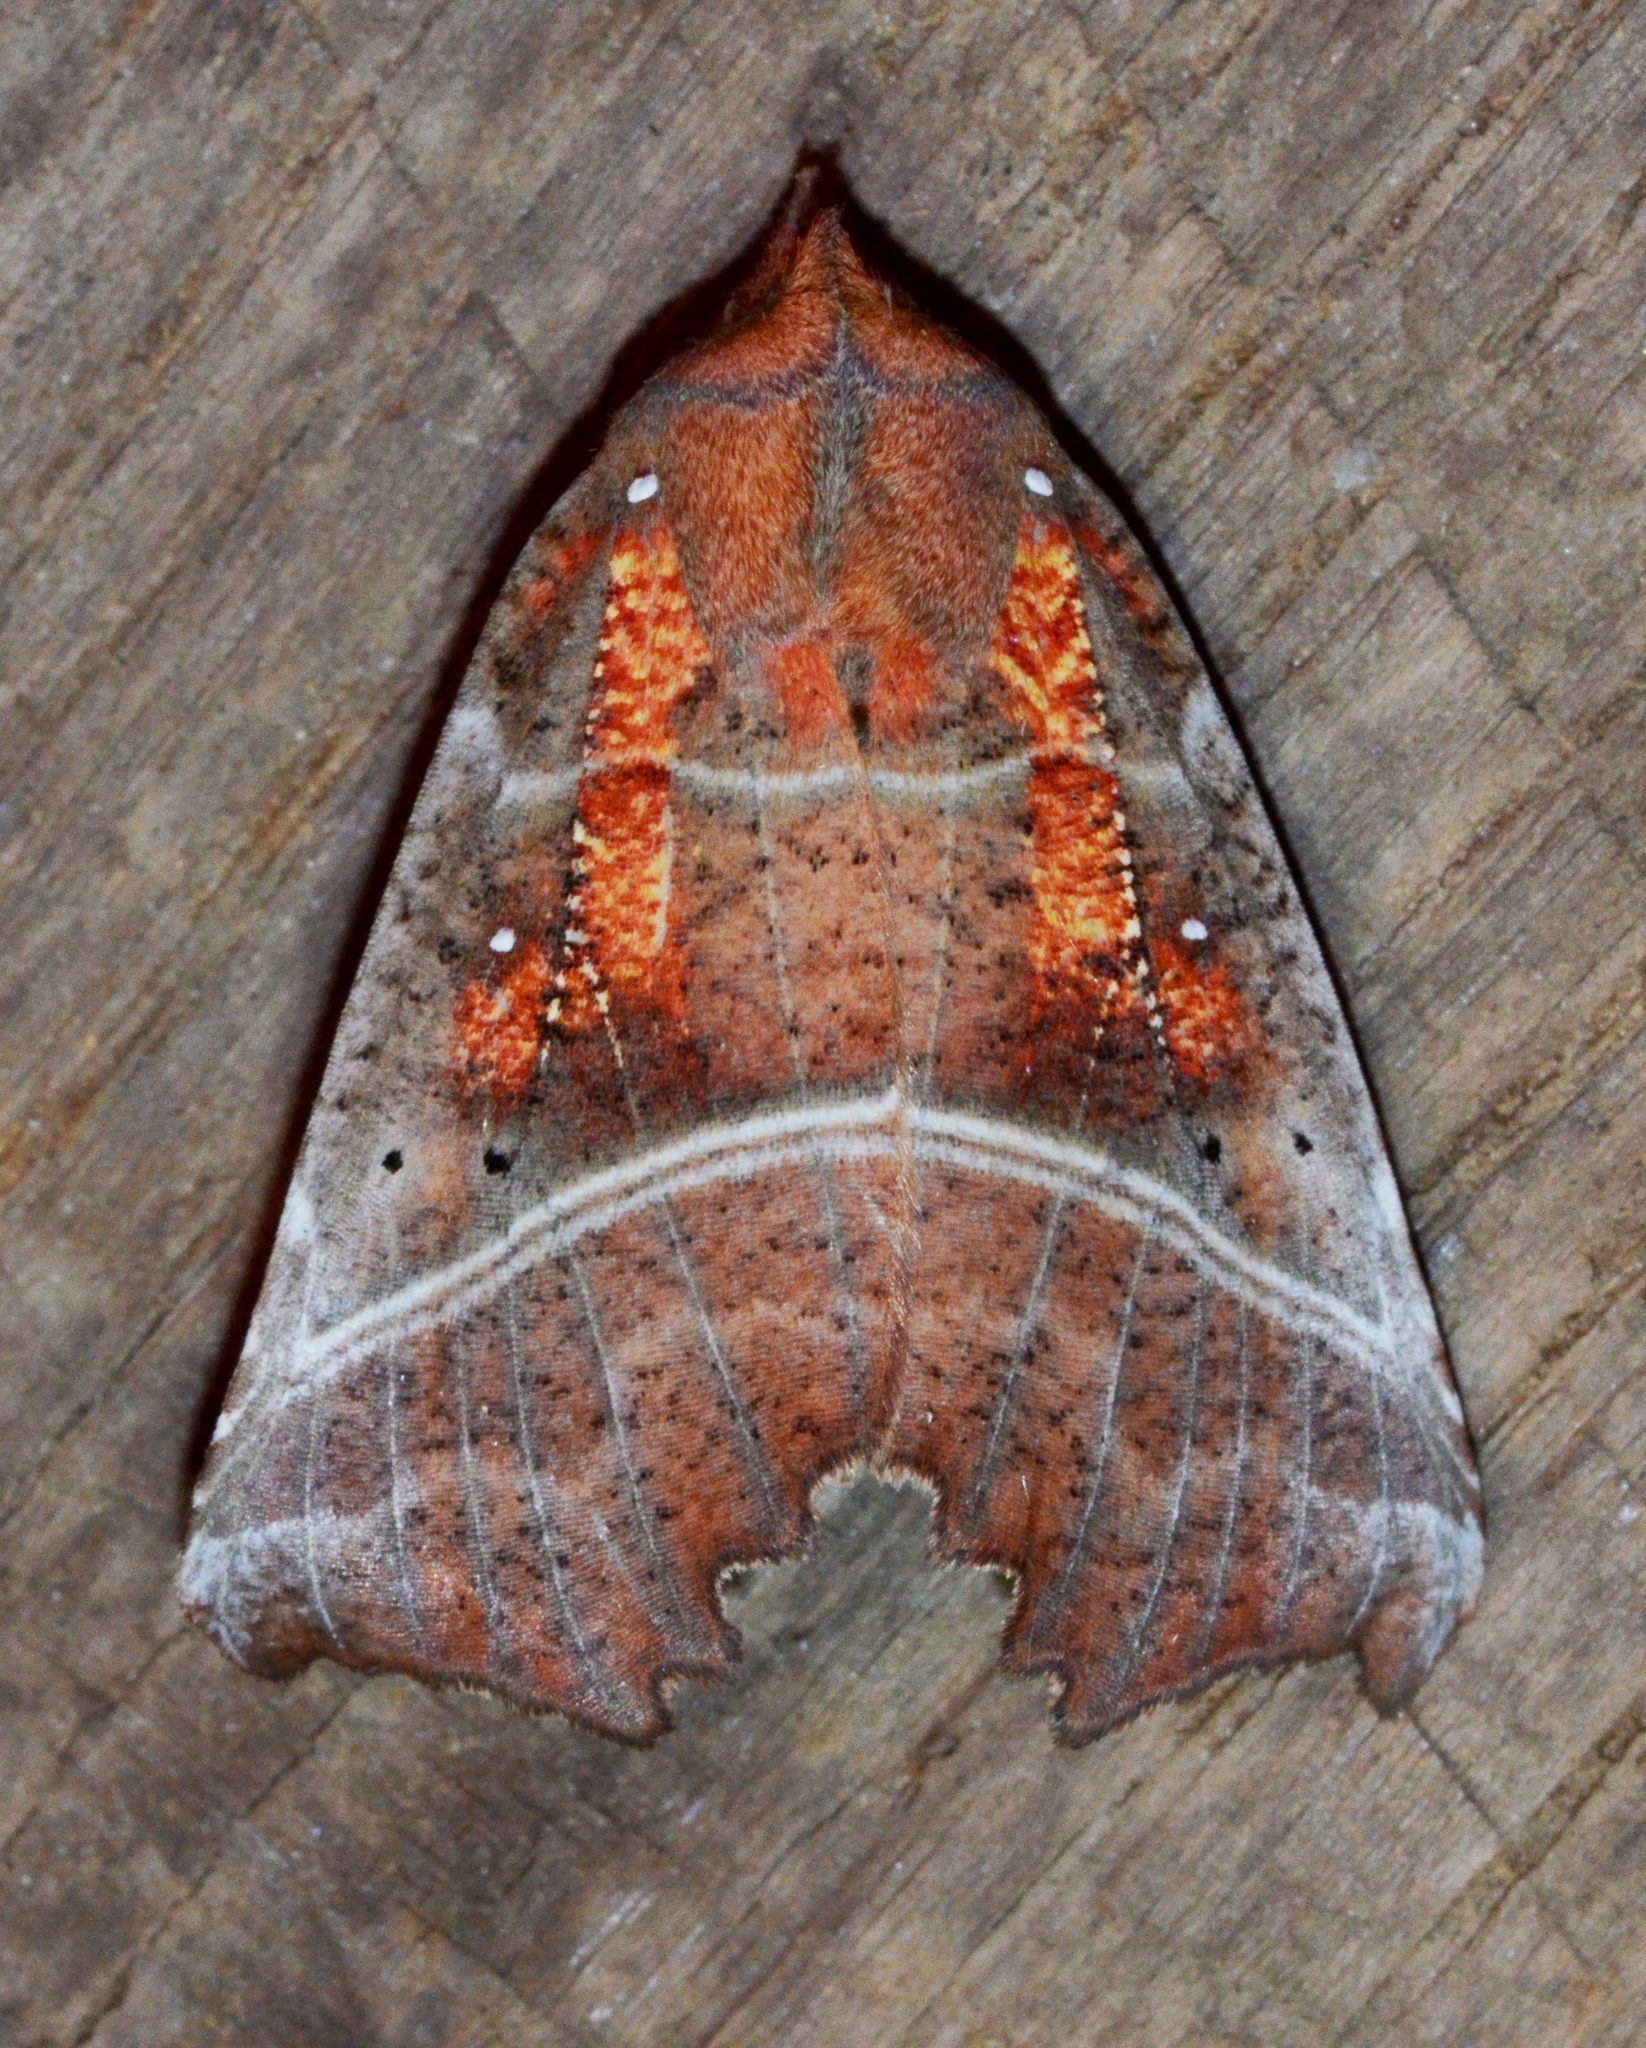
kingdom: Animalia
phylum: Arthropoda
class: Insecta
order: Lepidoptera
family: Erebidae
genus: Scoliopteryx
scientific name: Scoliopteryx libatrix
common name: Herald
